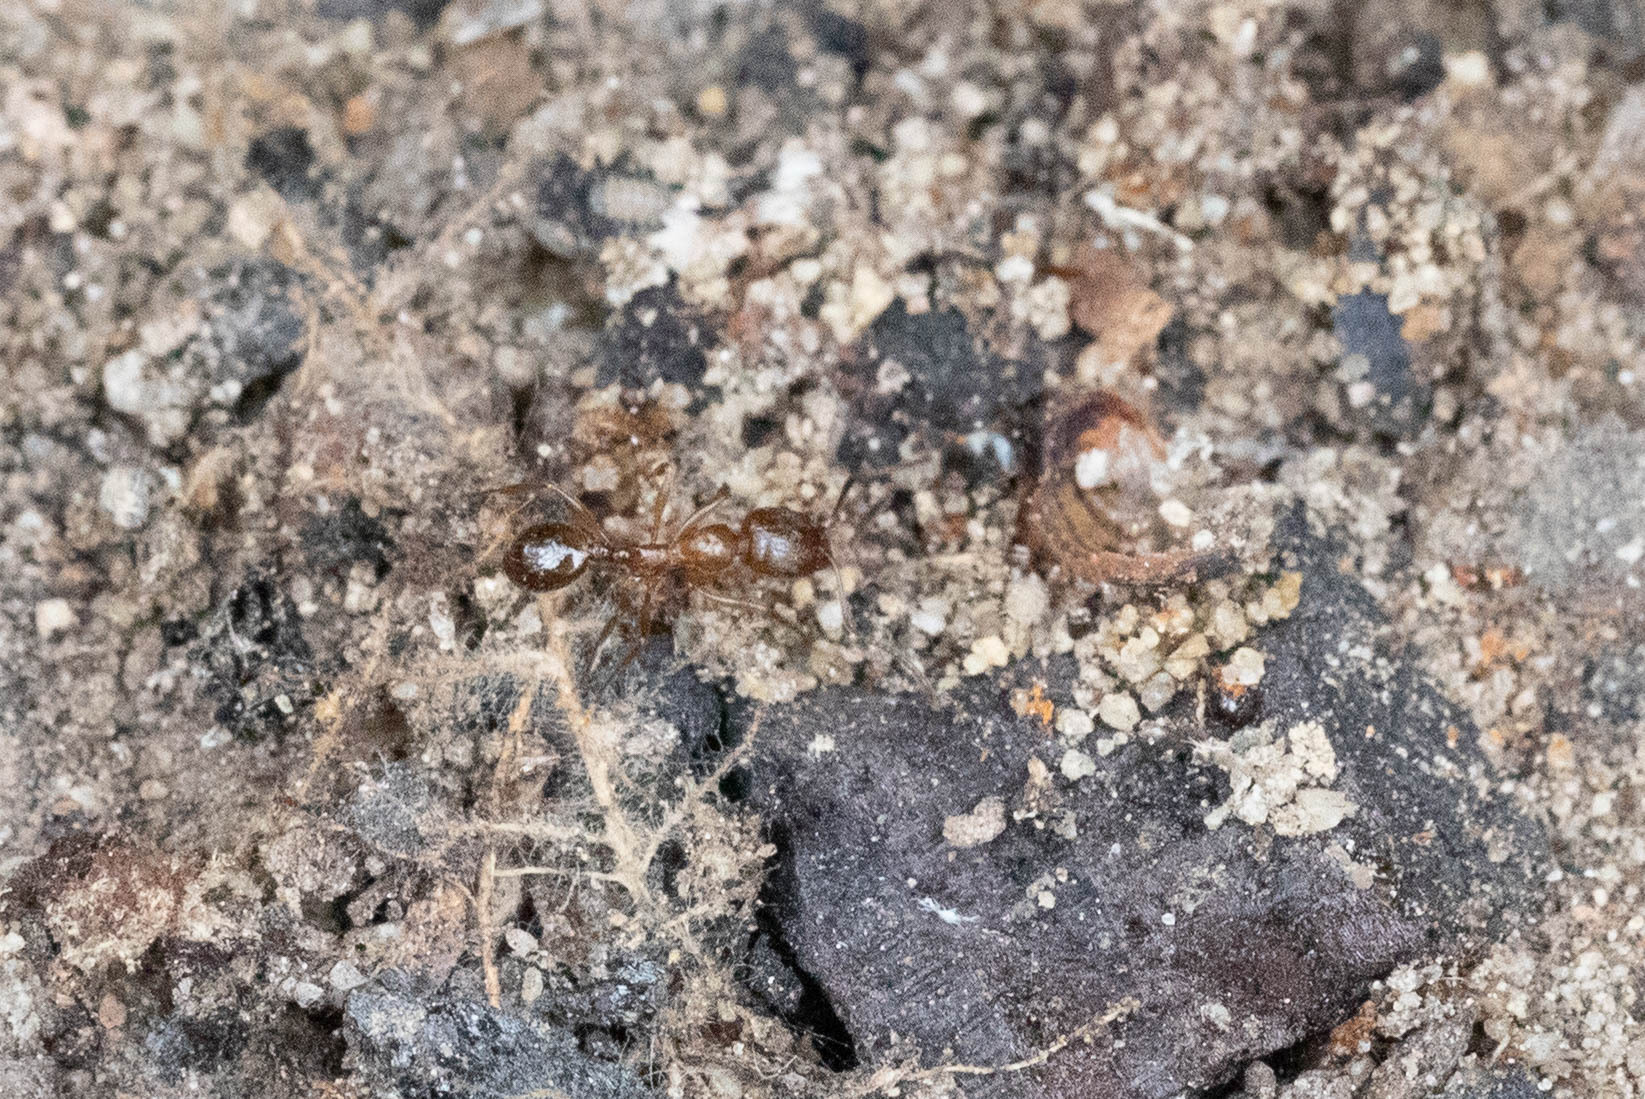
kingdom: Animalia
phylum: Arthropoda
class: Insecta
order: Hymenoptera
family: Formicidae
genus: Aphaenogaster
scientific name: Aphaenogaster occidentalis
